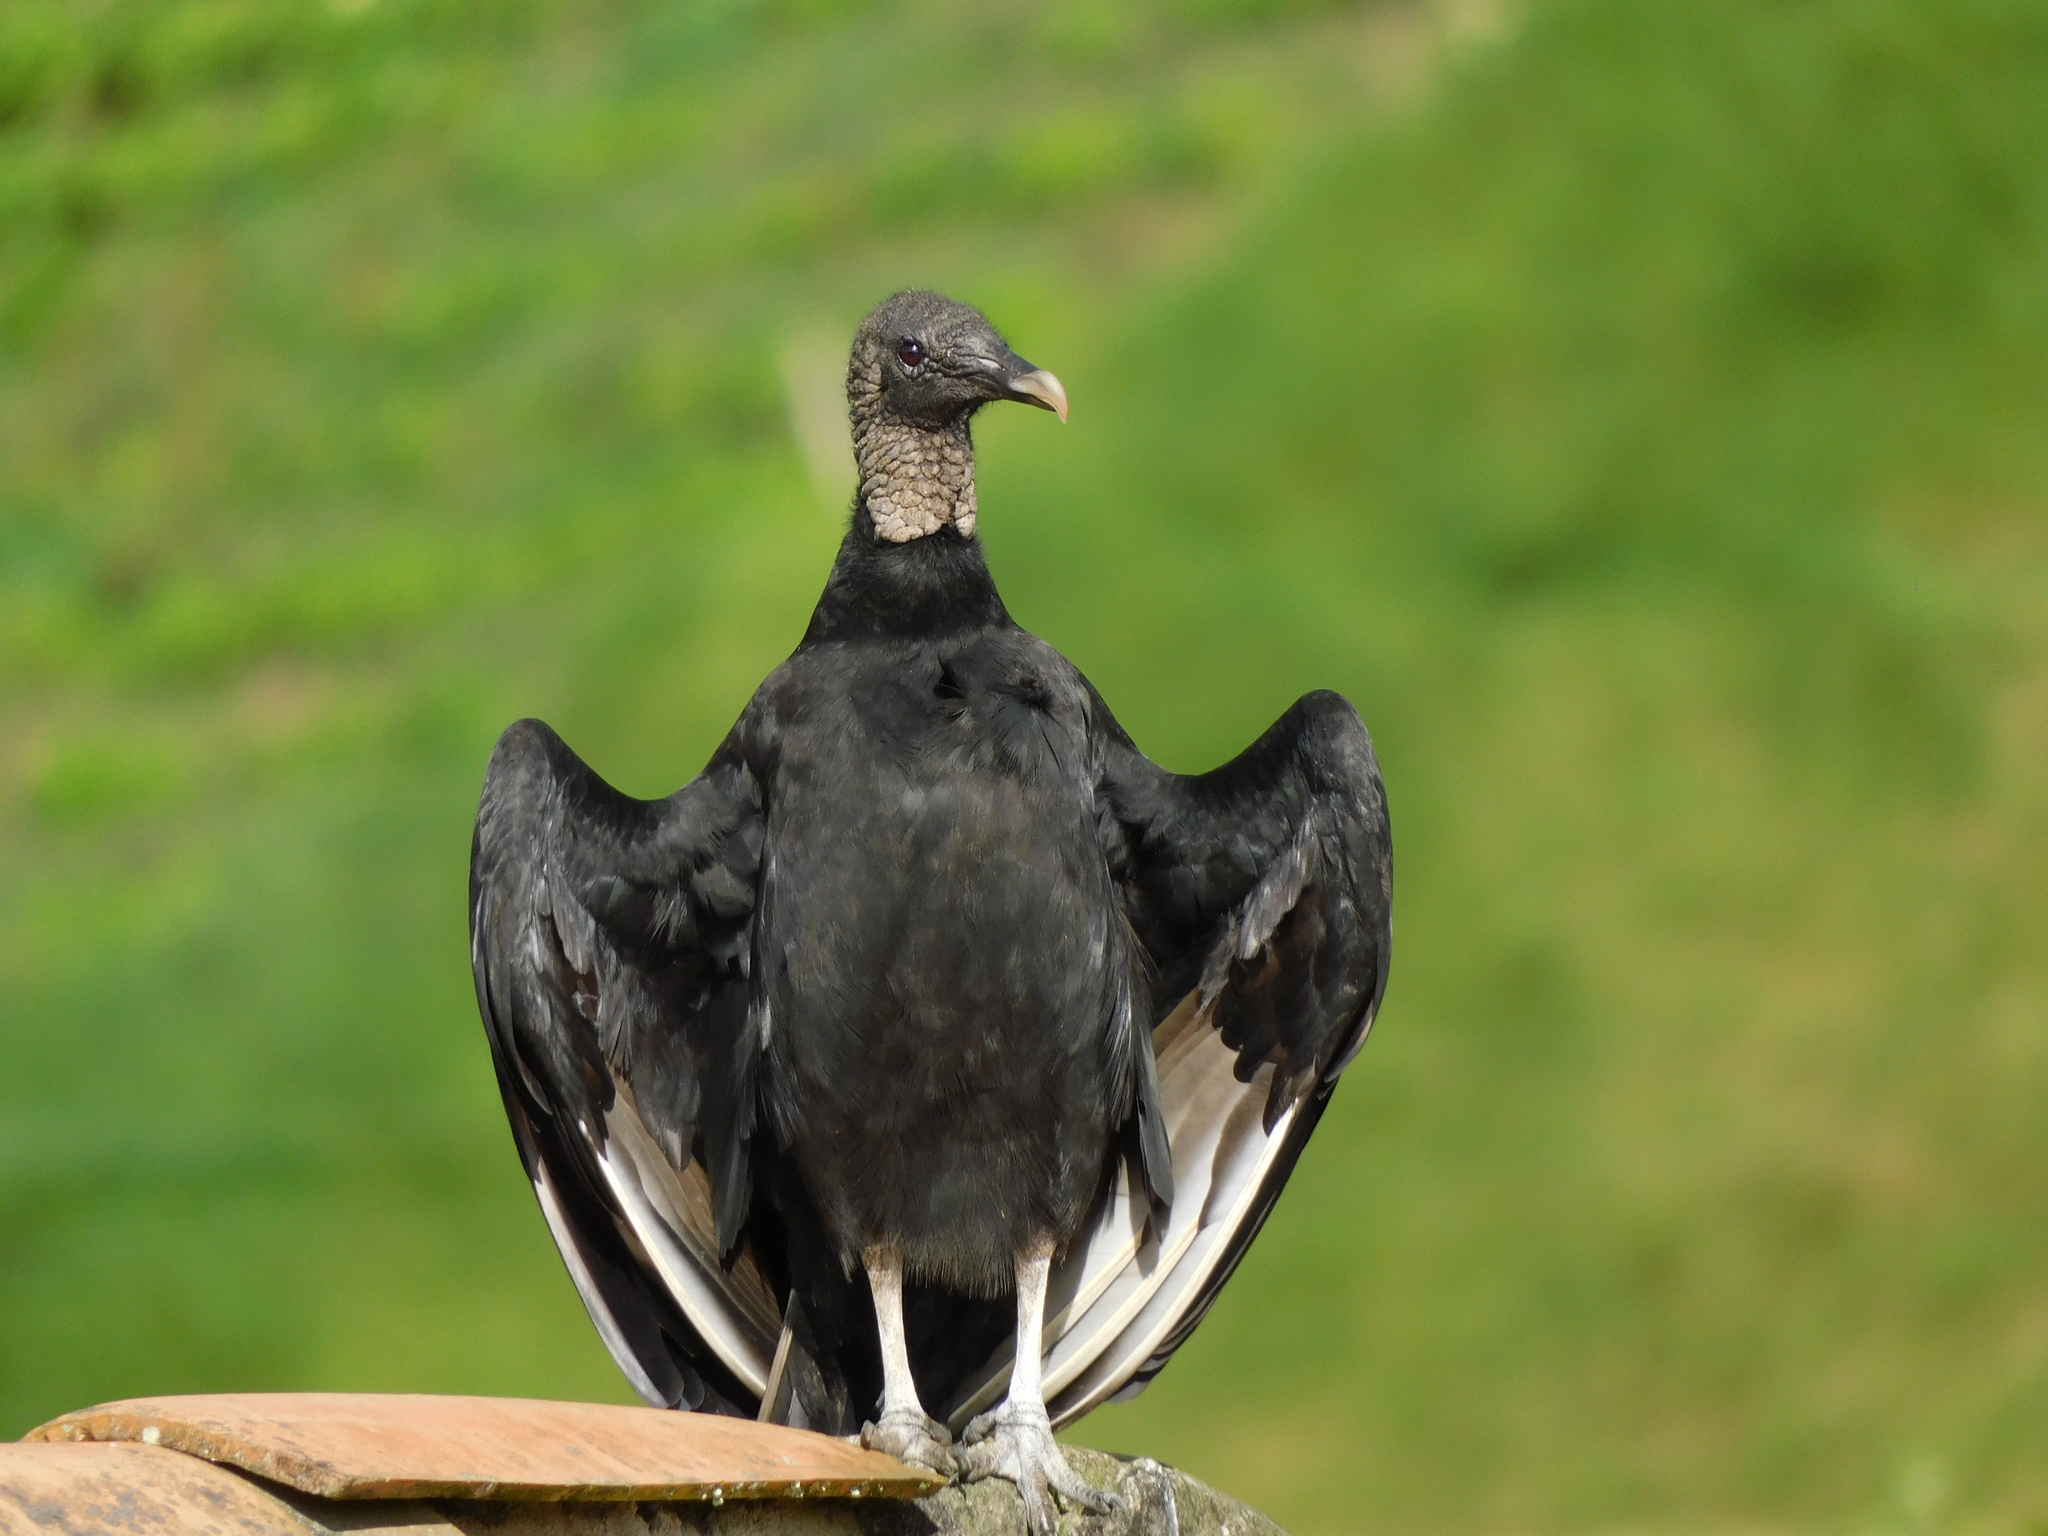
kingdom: Animalia
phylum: Chordata
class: Aves
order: Accipitriformes
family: Cathartidae
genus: Coragyps
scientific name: Coragyps atratus
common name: Black vulture
